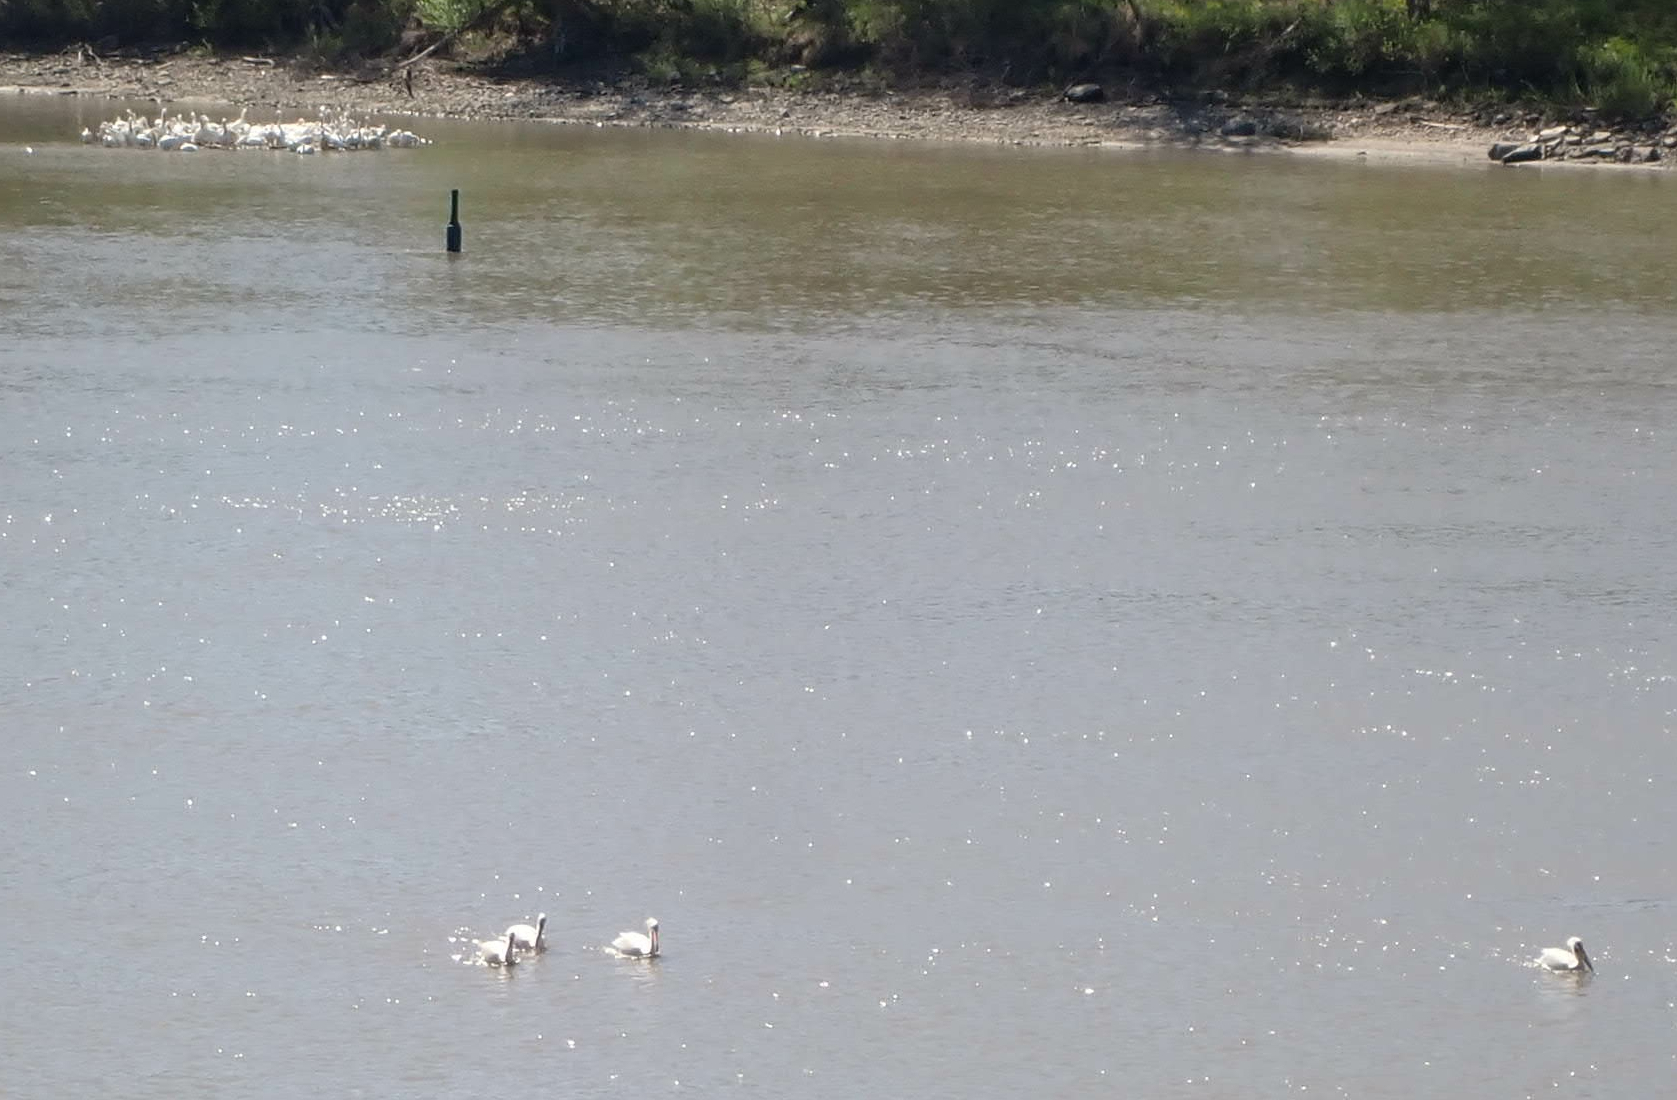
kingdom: Animalia
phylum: Chordata
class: Aves
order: Pelecaniformes
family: Pelecanidae
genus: Pelecanus
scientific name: Pelecanus erythrorhynchos
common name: American white pelican
